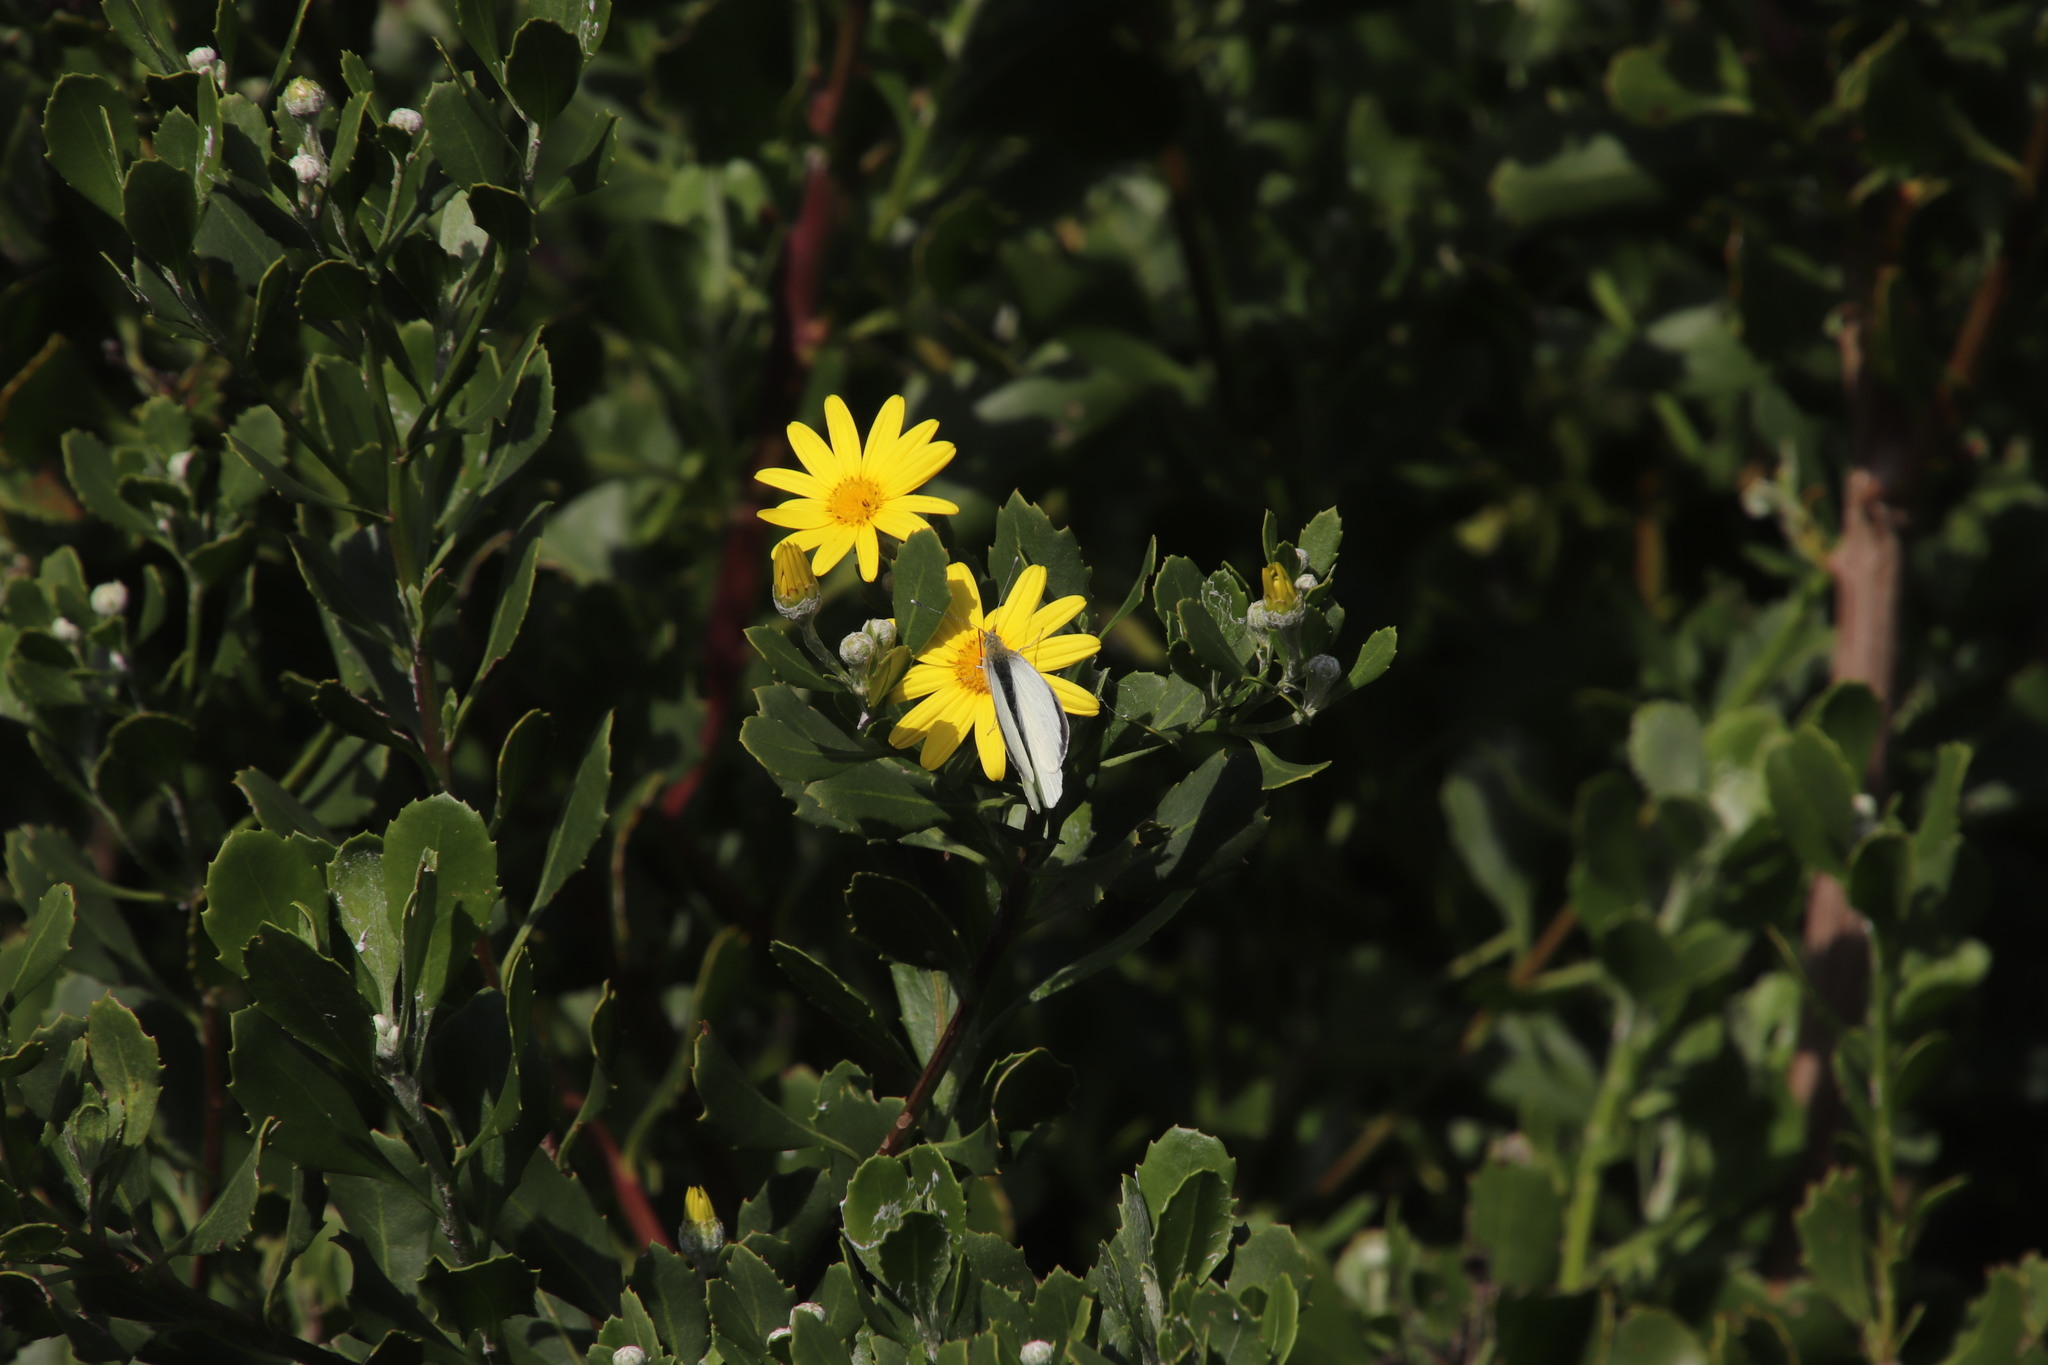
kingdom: Plantae
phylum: Tracheophyta
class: Magnoliopsida
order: Asterales
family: Asteraceae
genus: Osteospermum
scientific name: Osteospermum moniliferum
